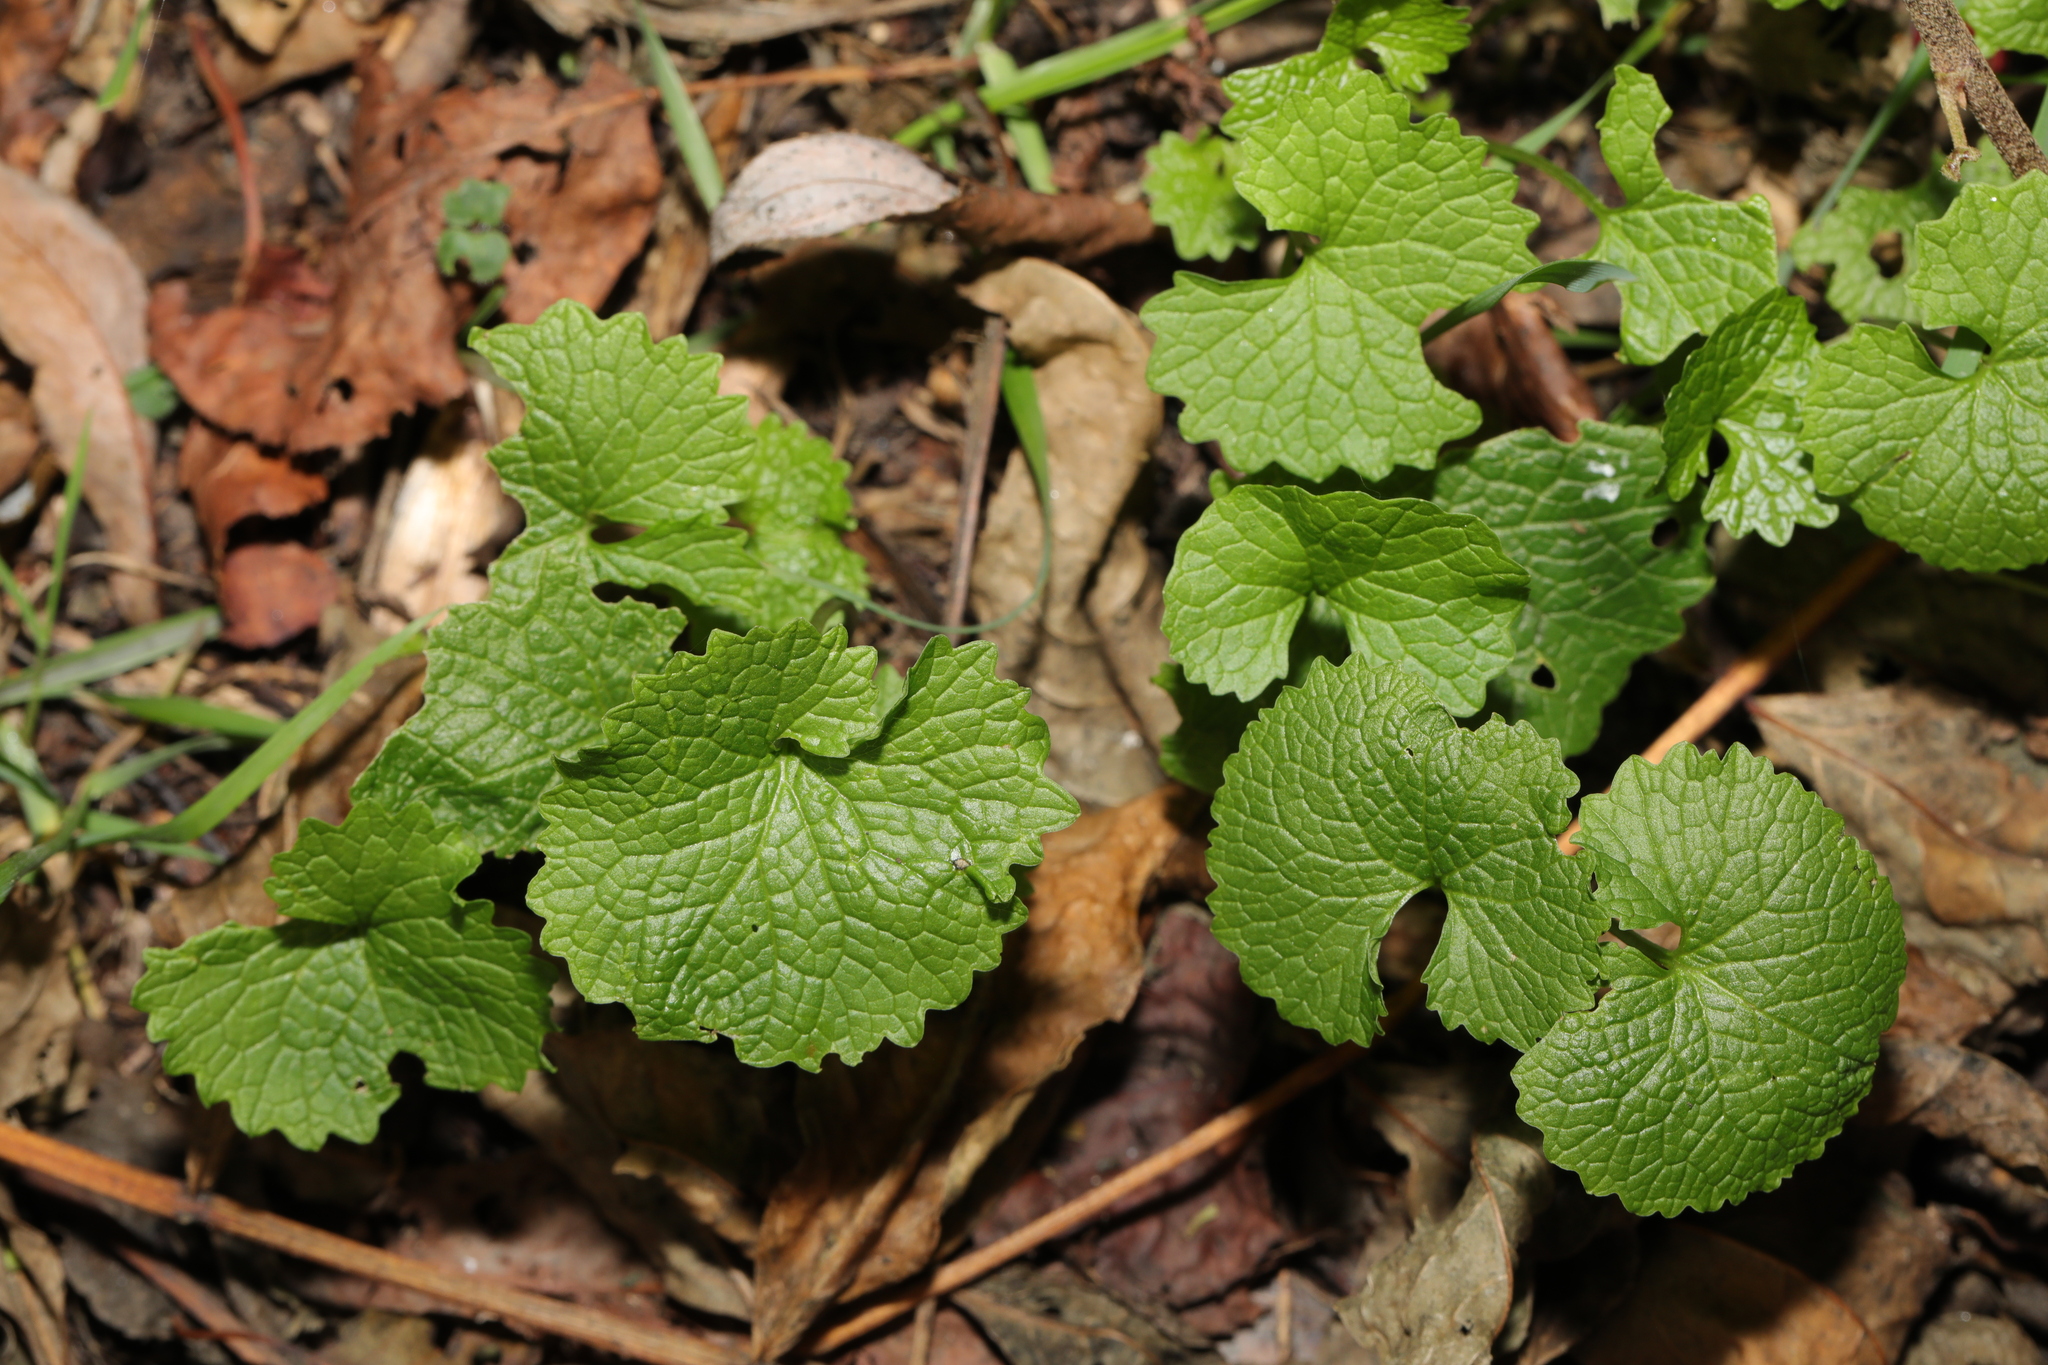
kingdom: Plantae
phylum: Tracheophyta
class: Magnoliopsida
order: Brassicales
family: Brassicaceae
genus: Alliaria
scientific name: Alliaria petiolata
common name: Garlic mustard
